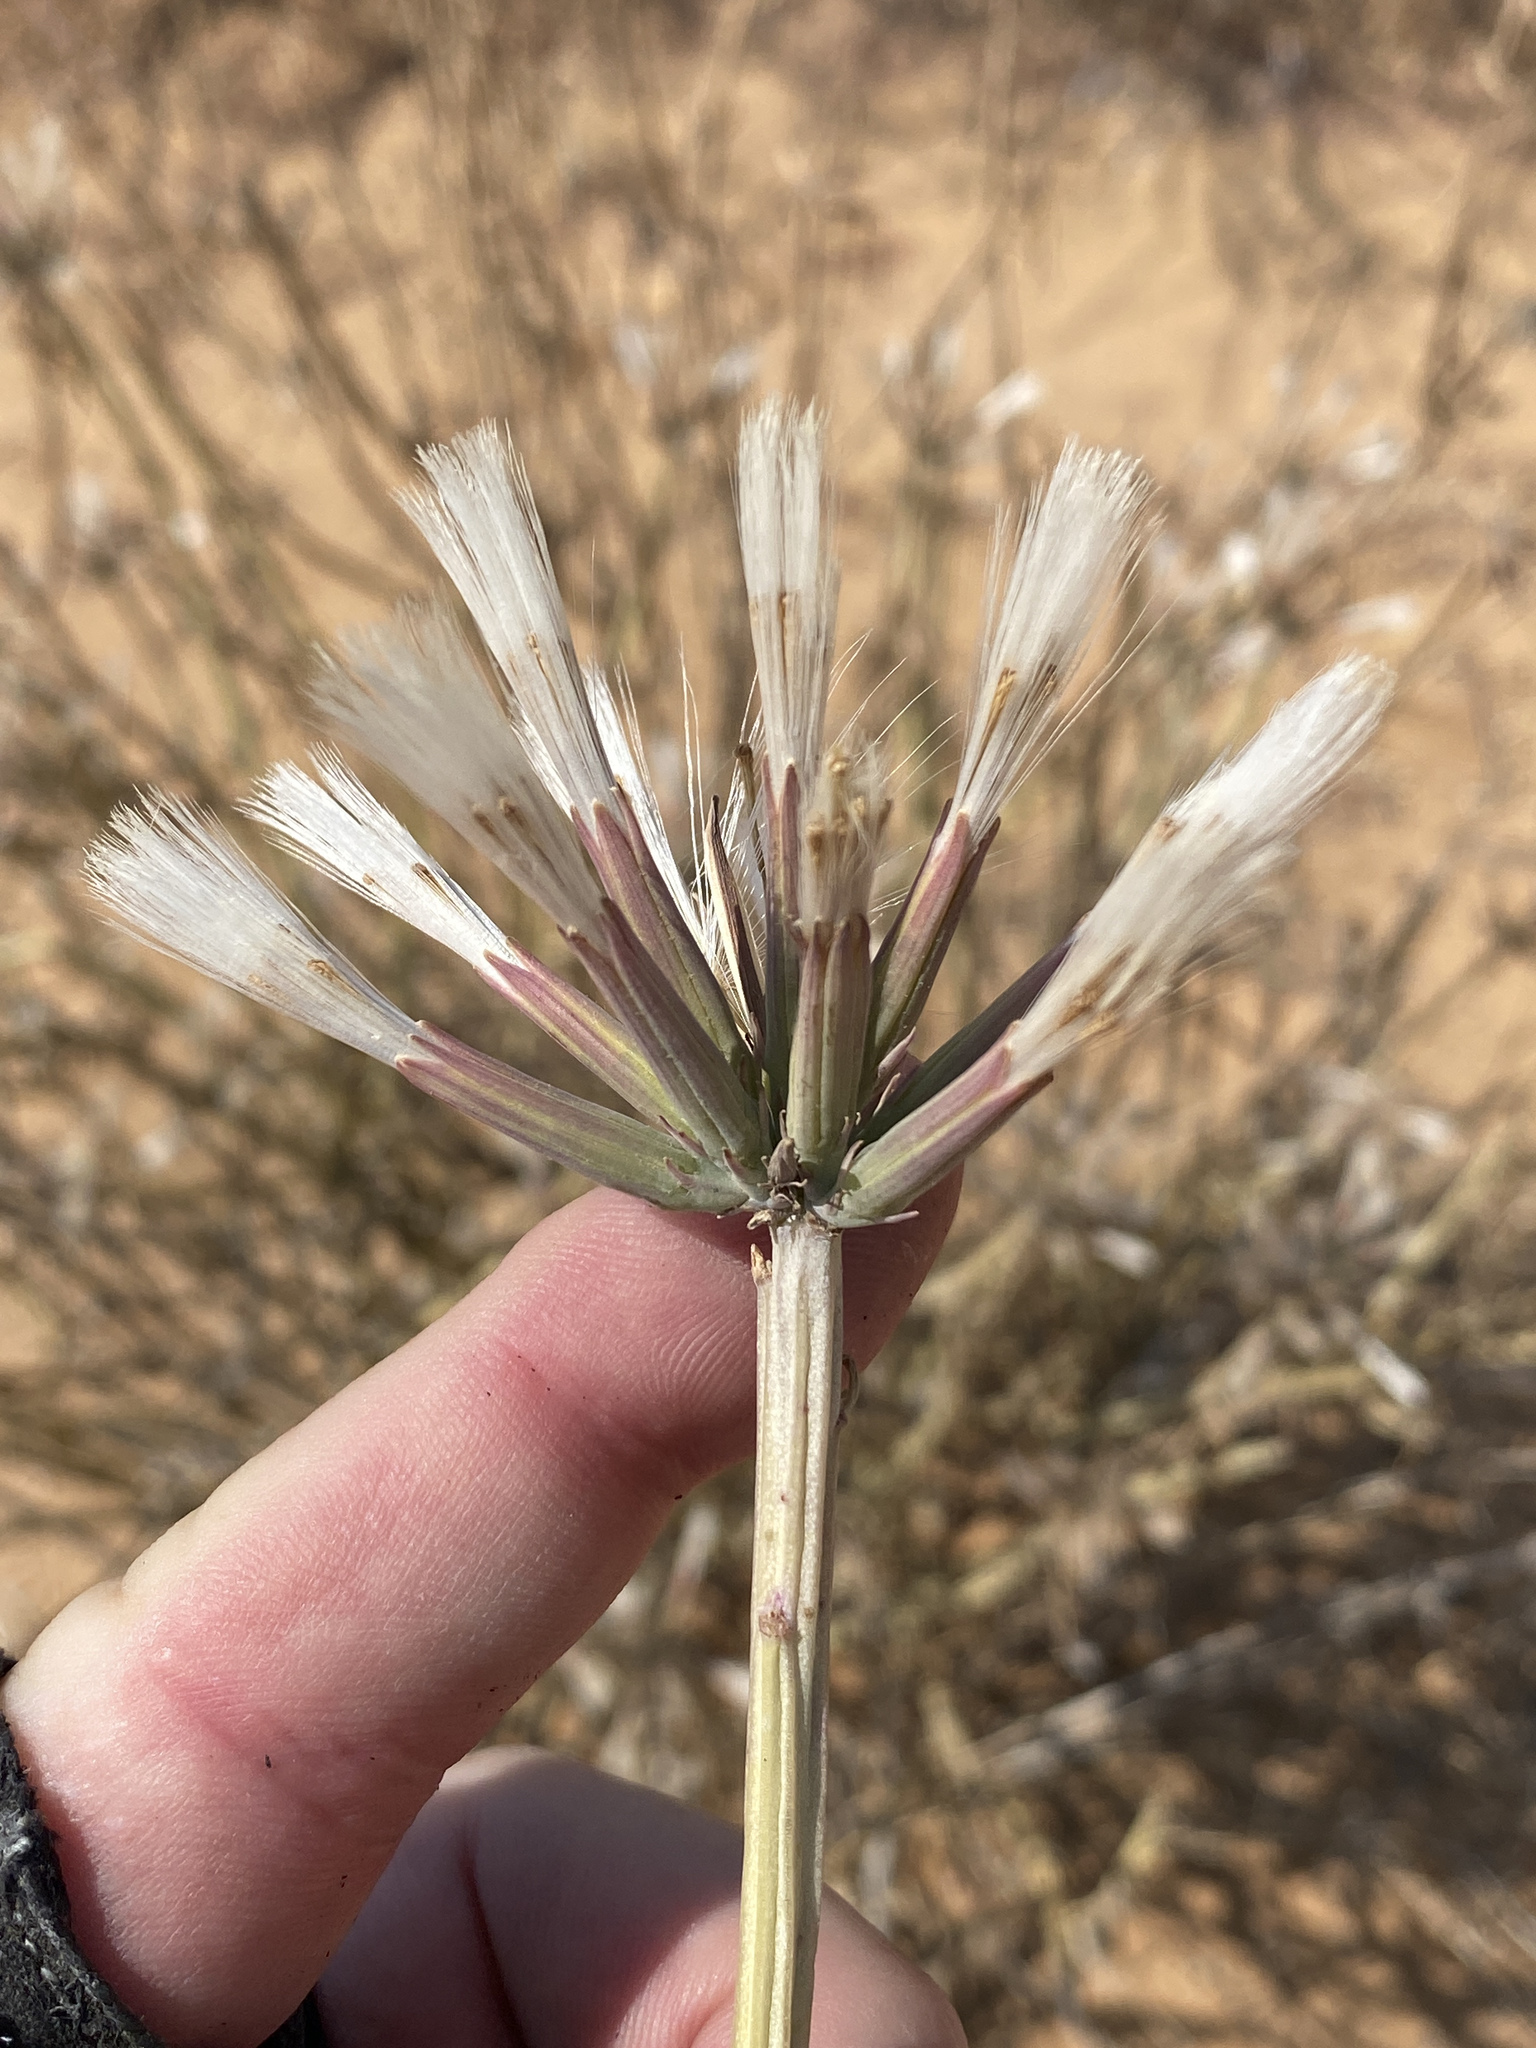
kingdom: Plantae
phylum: Tracheophyta
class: Magnoliopsida
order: Asterales
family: Asteraceae
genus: Curio
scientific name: Curio avasimontanus
